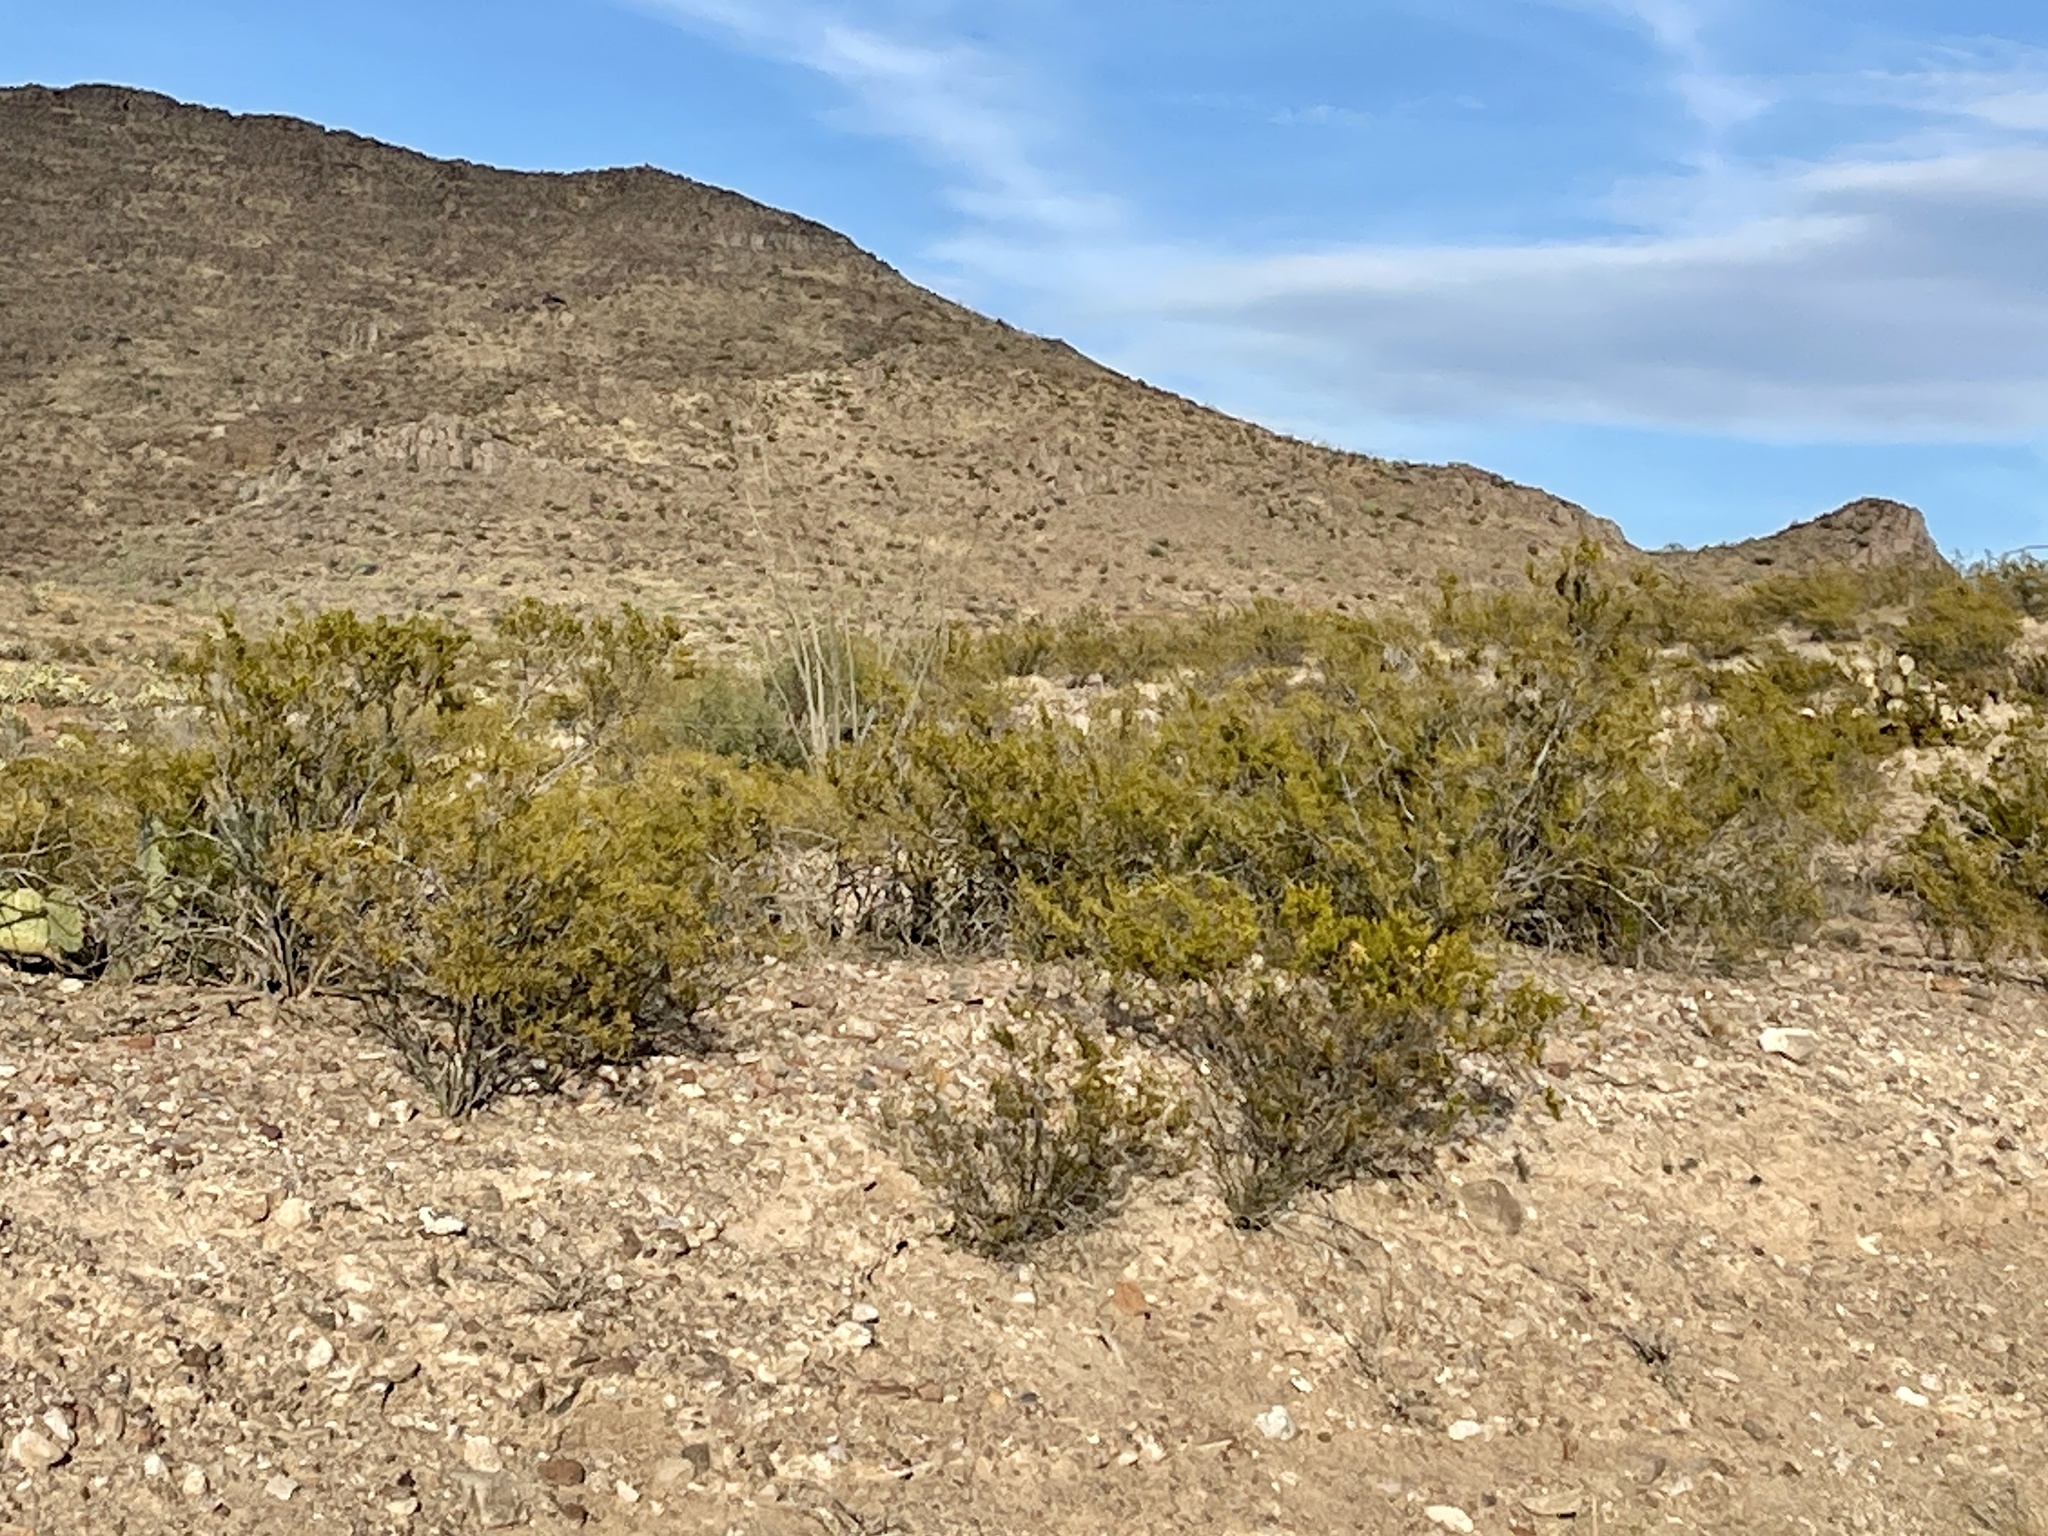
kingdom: Plantae
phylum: Tracheophyta
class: Magnoliopsida
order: Zygophyllales
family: Zygophyllaceae
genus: Larrea
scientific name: Larrea tridentata
